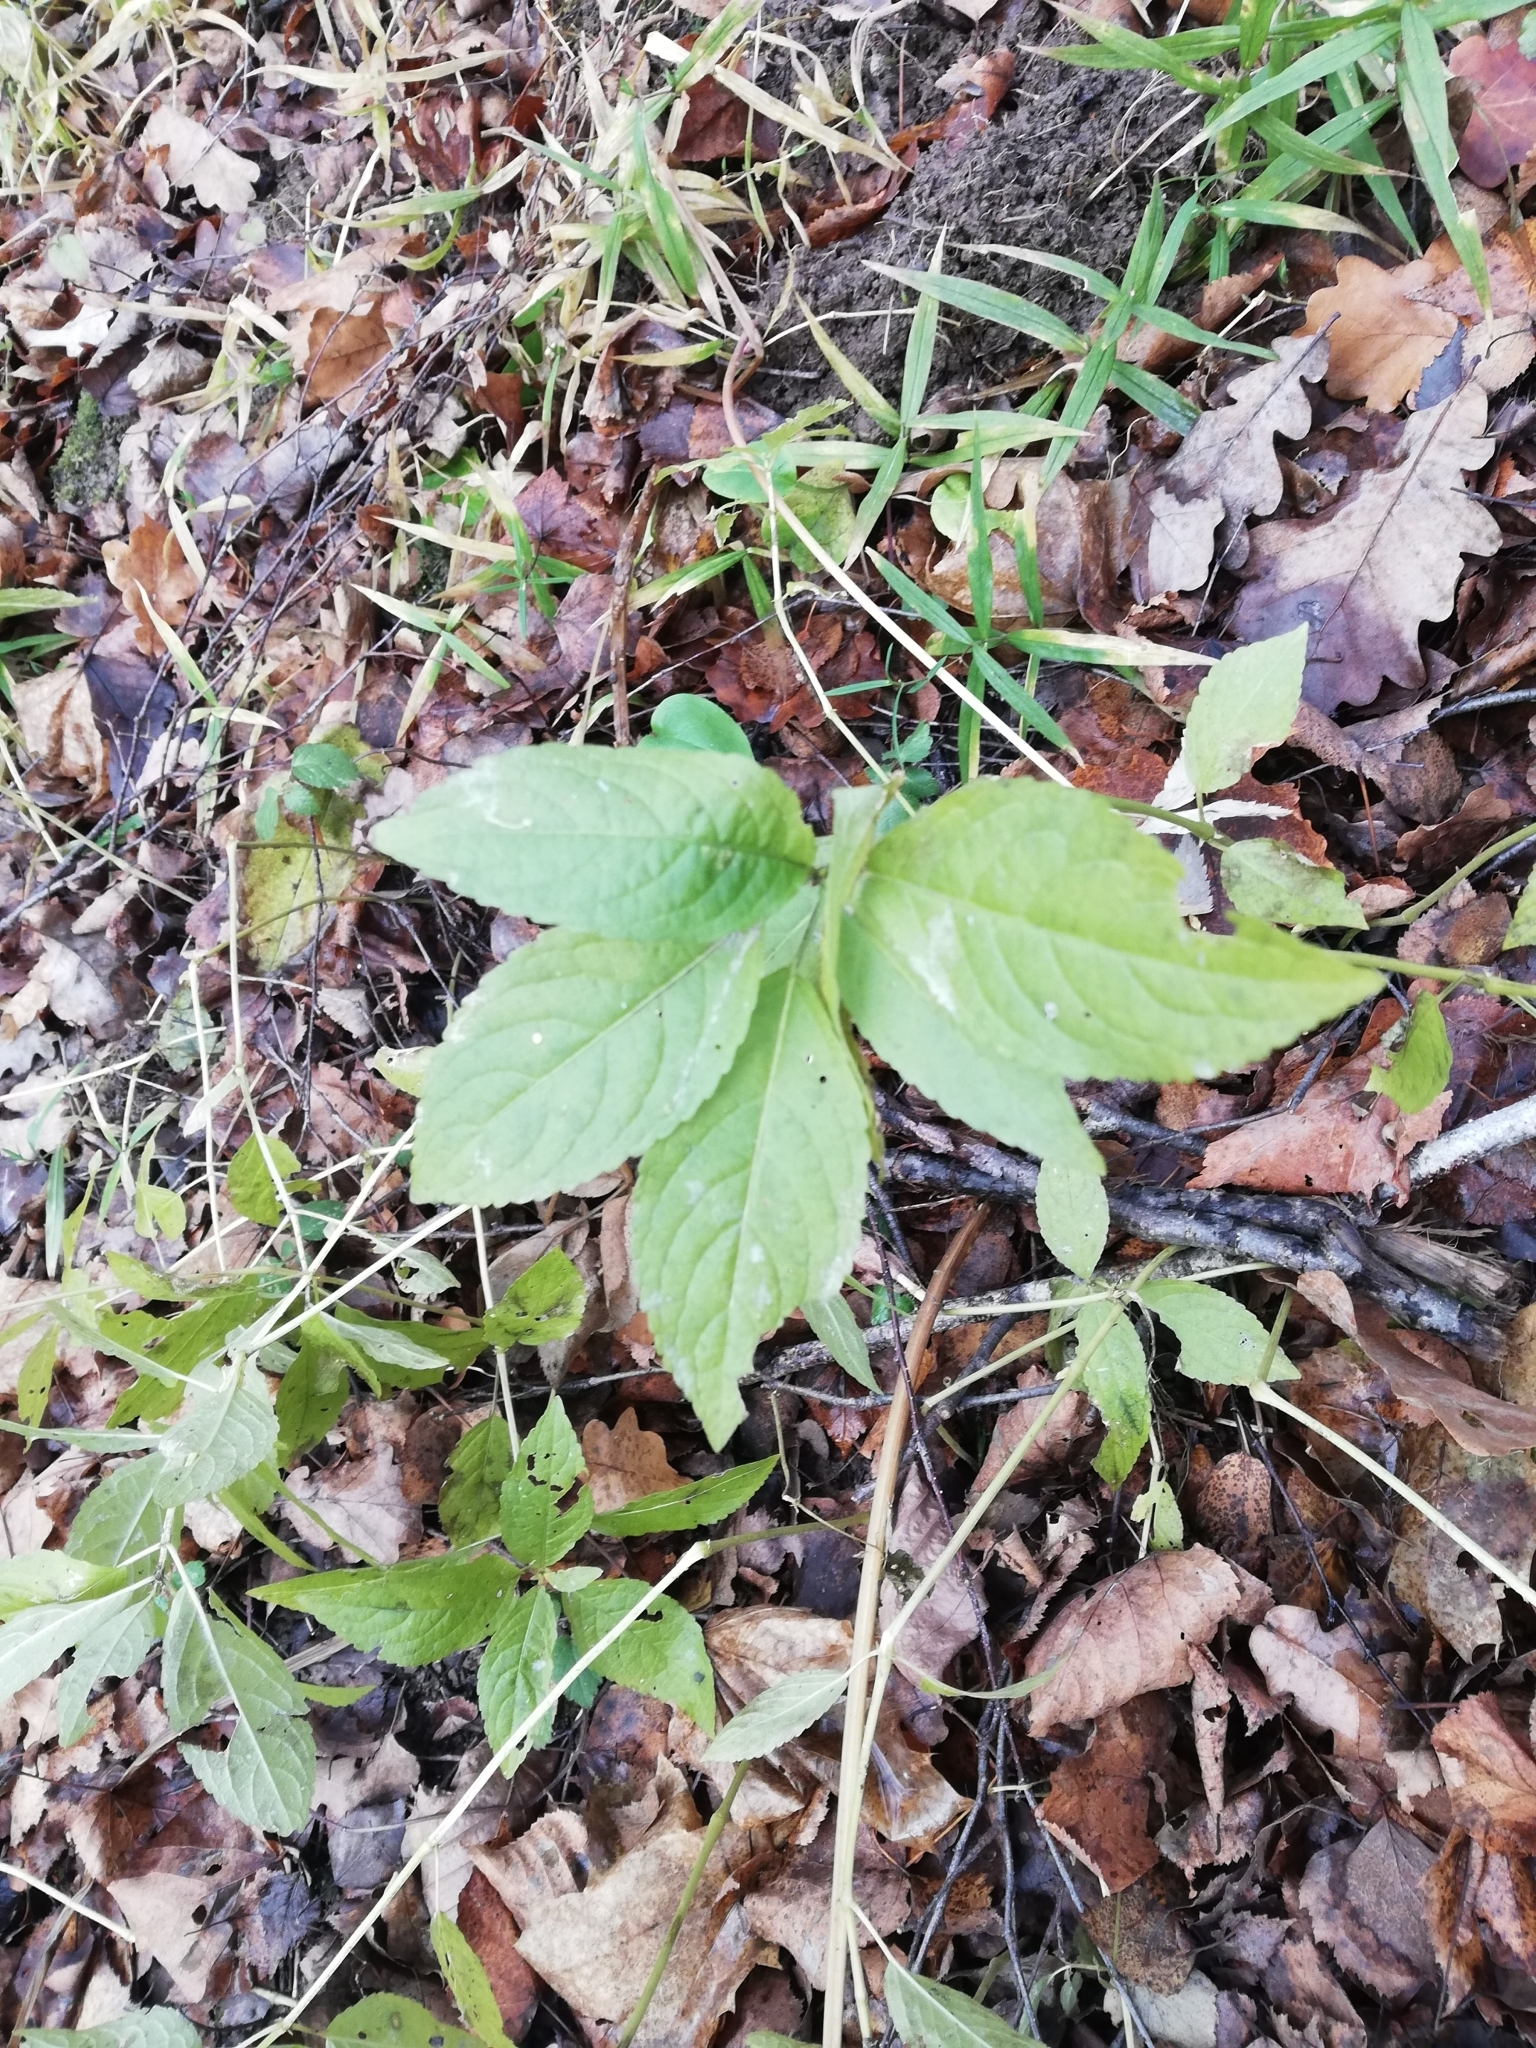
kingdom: Plantae
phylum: Tracheophyta
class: Magnoliopsida
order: Malpighiales
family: Euphorbiaceae
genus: Mercurialis
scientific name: Mercurialis perennis
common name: Dog mercury
